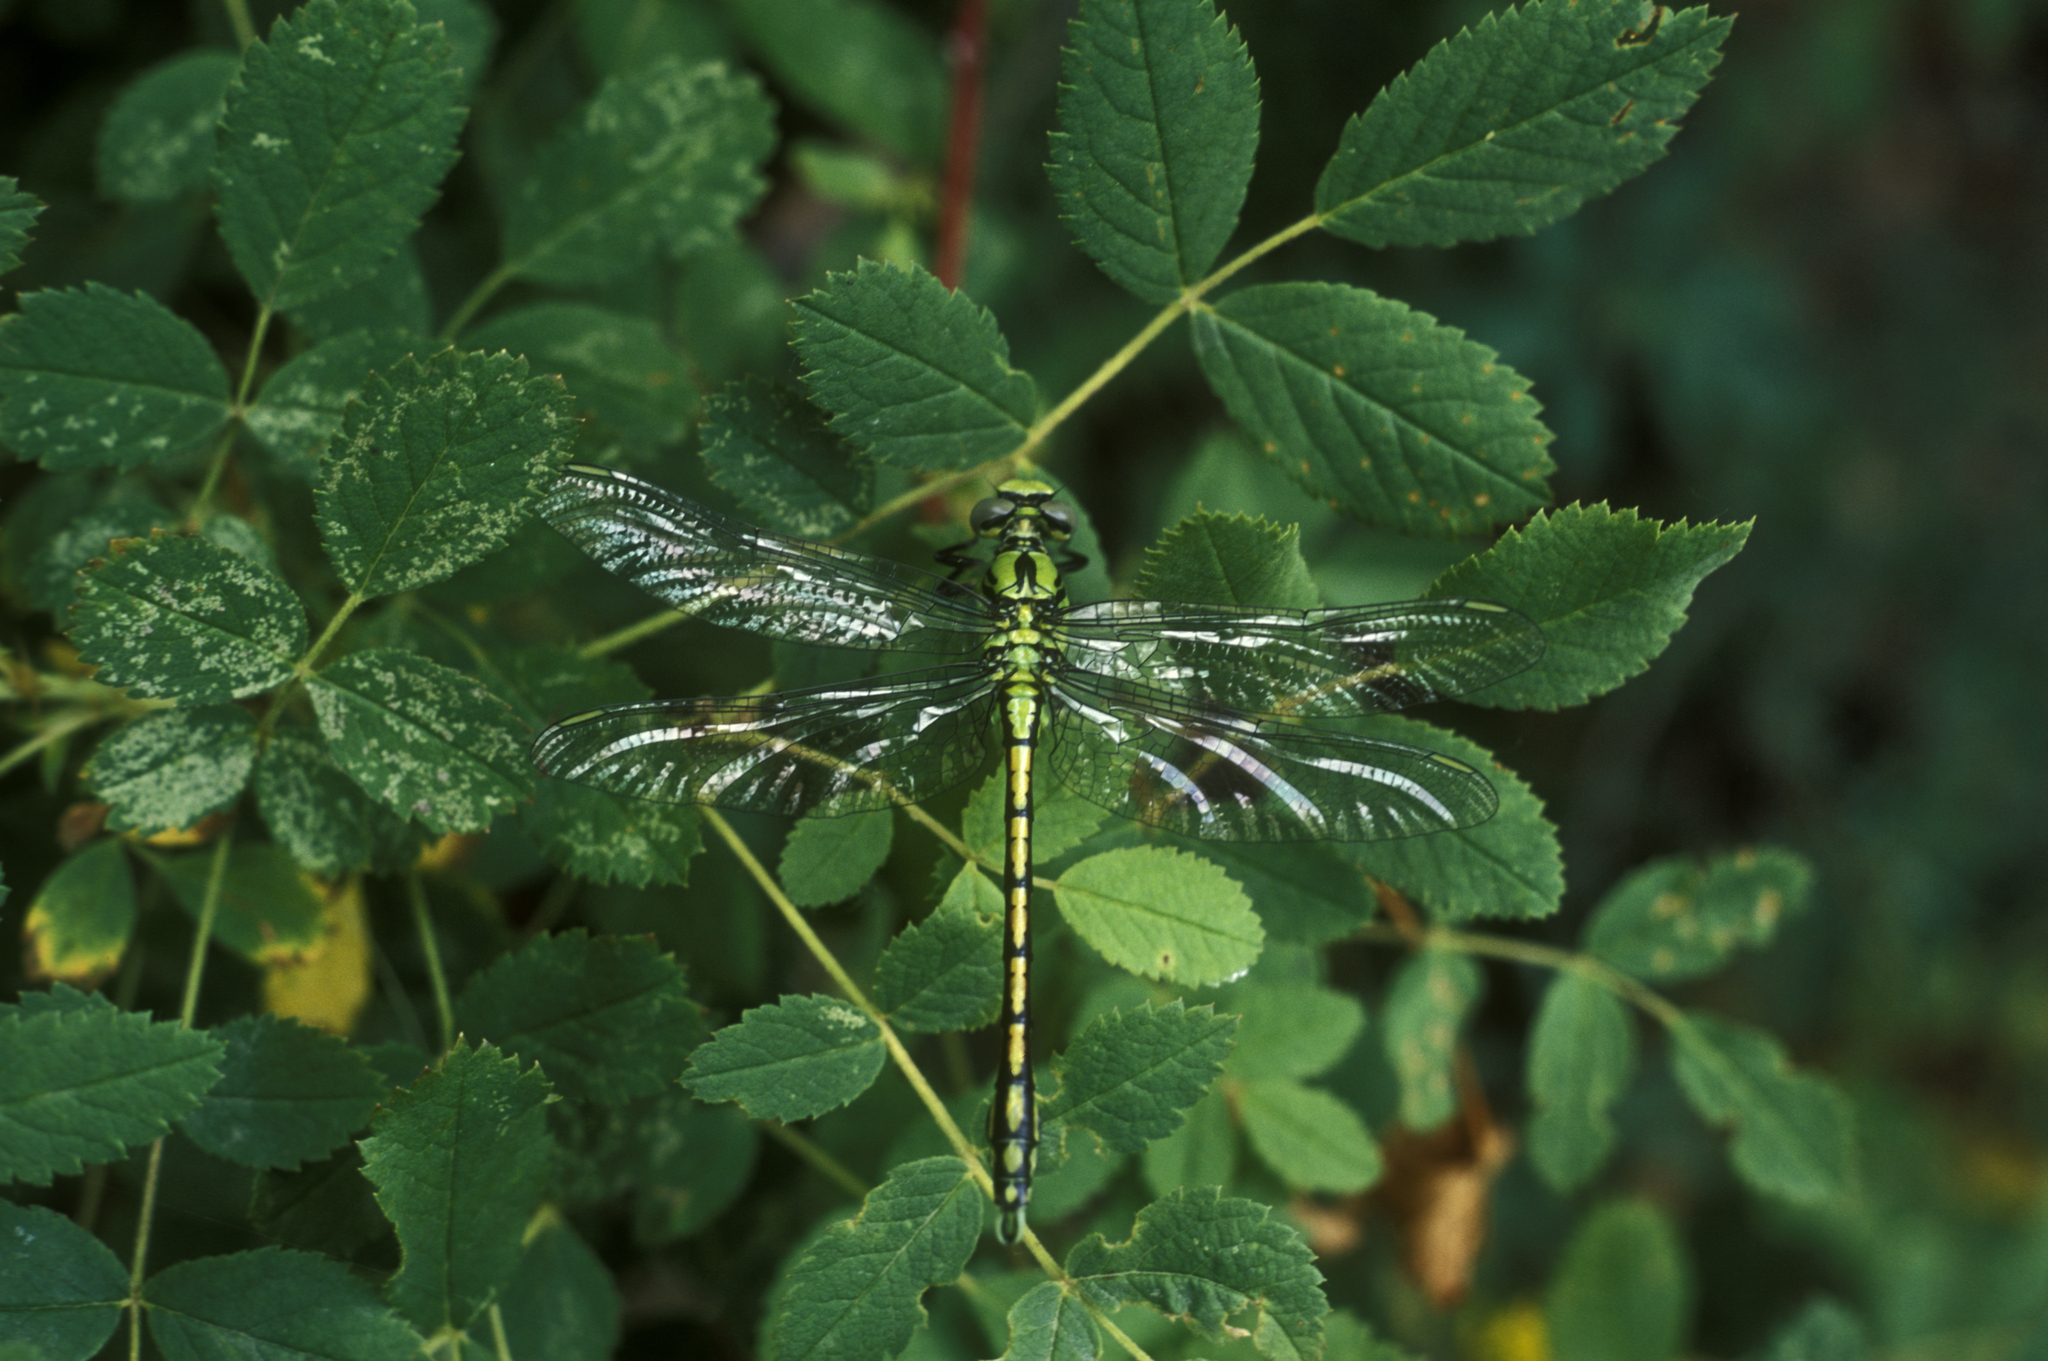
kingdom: Animalia
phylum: Arthropoda
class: Insecta
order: Odonata
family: Gomphidae
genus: Ophiogomphus
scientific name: Ophiogomphus spinicornis
